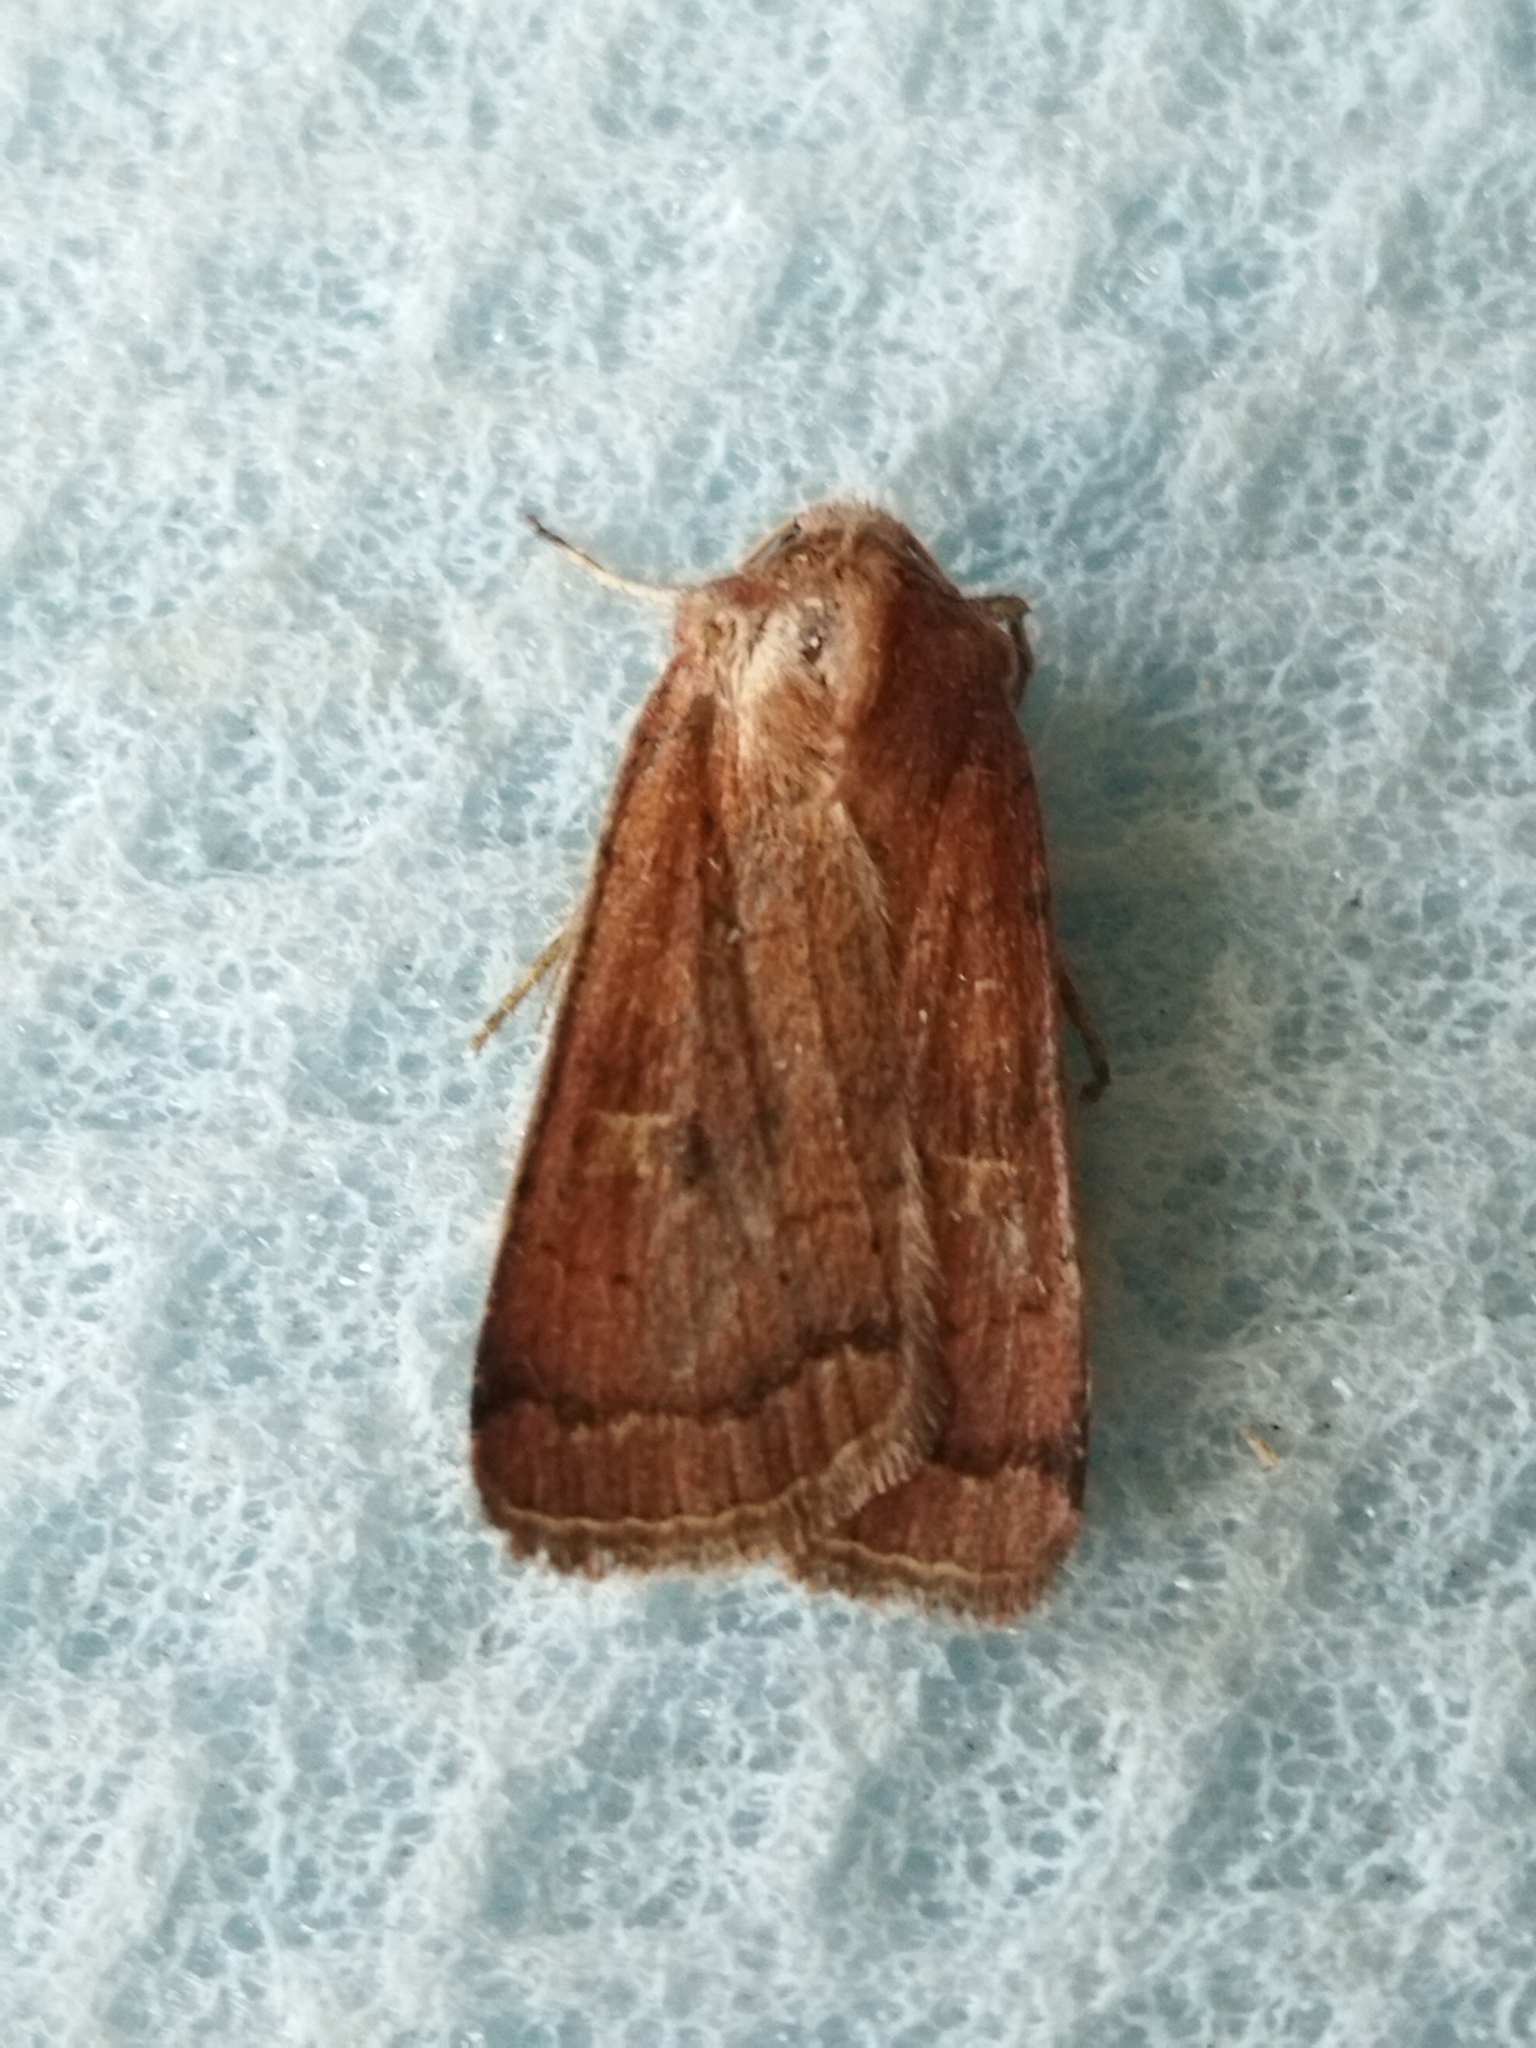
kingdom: Animalia
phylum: Arthropoda
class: Insecta
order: Lepidoptera
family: Noctuidae
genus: Xestia
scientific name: Xestia xanthographa
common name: Square-spot rustic
